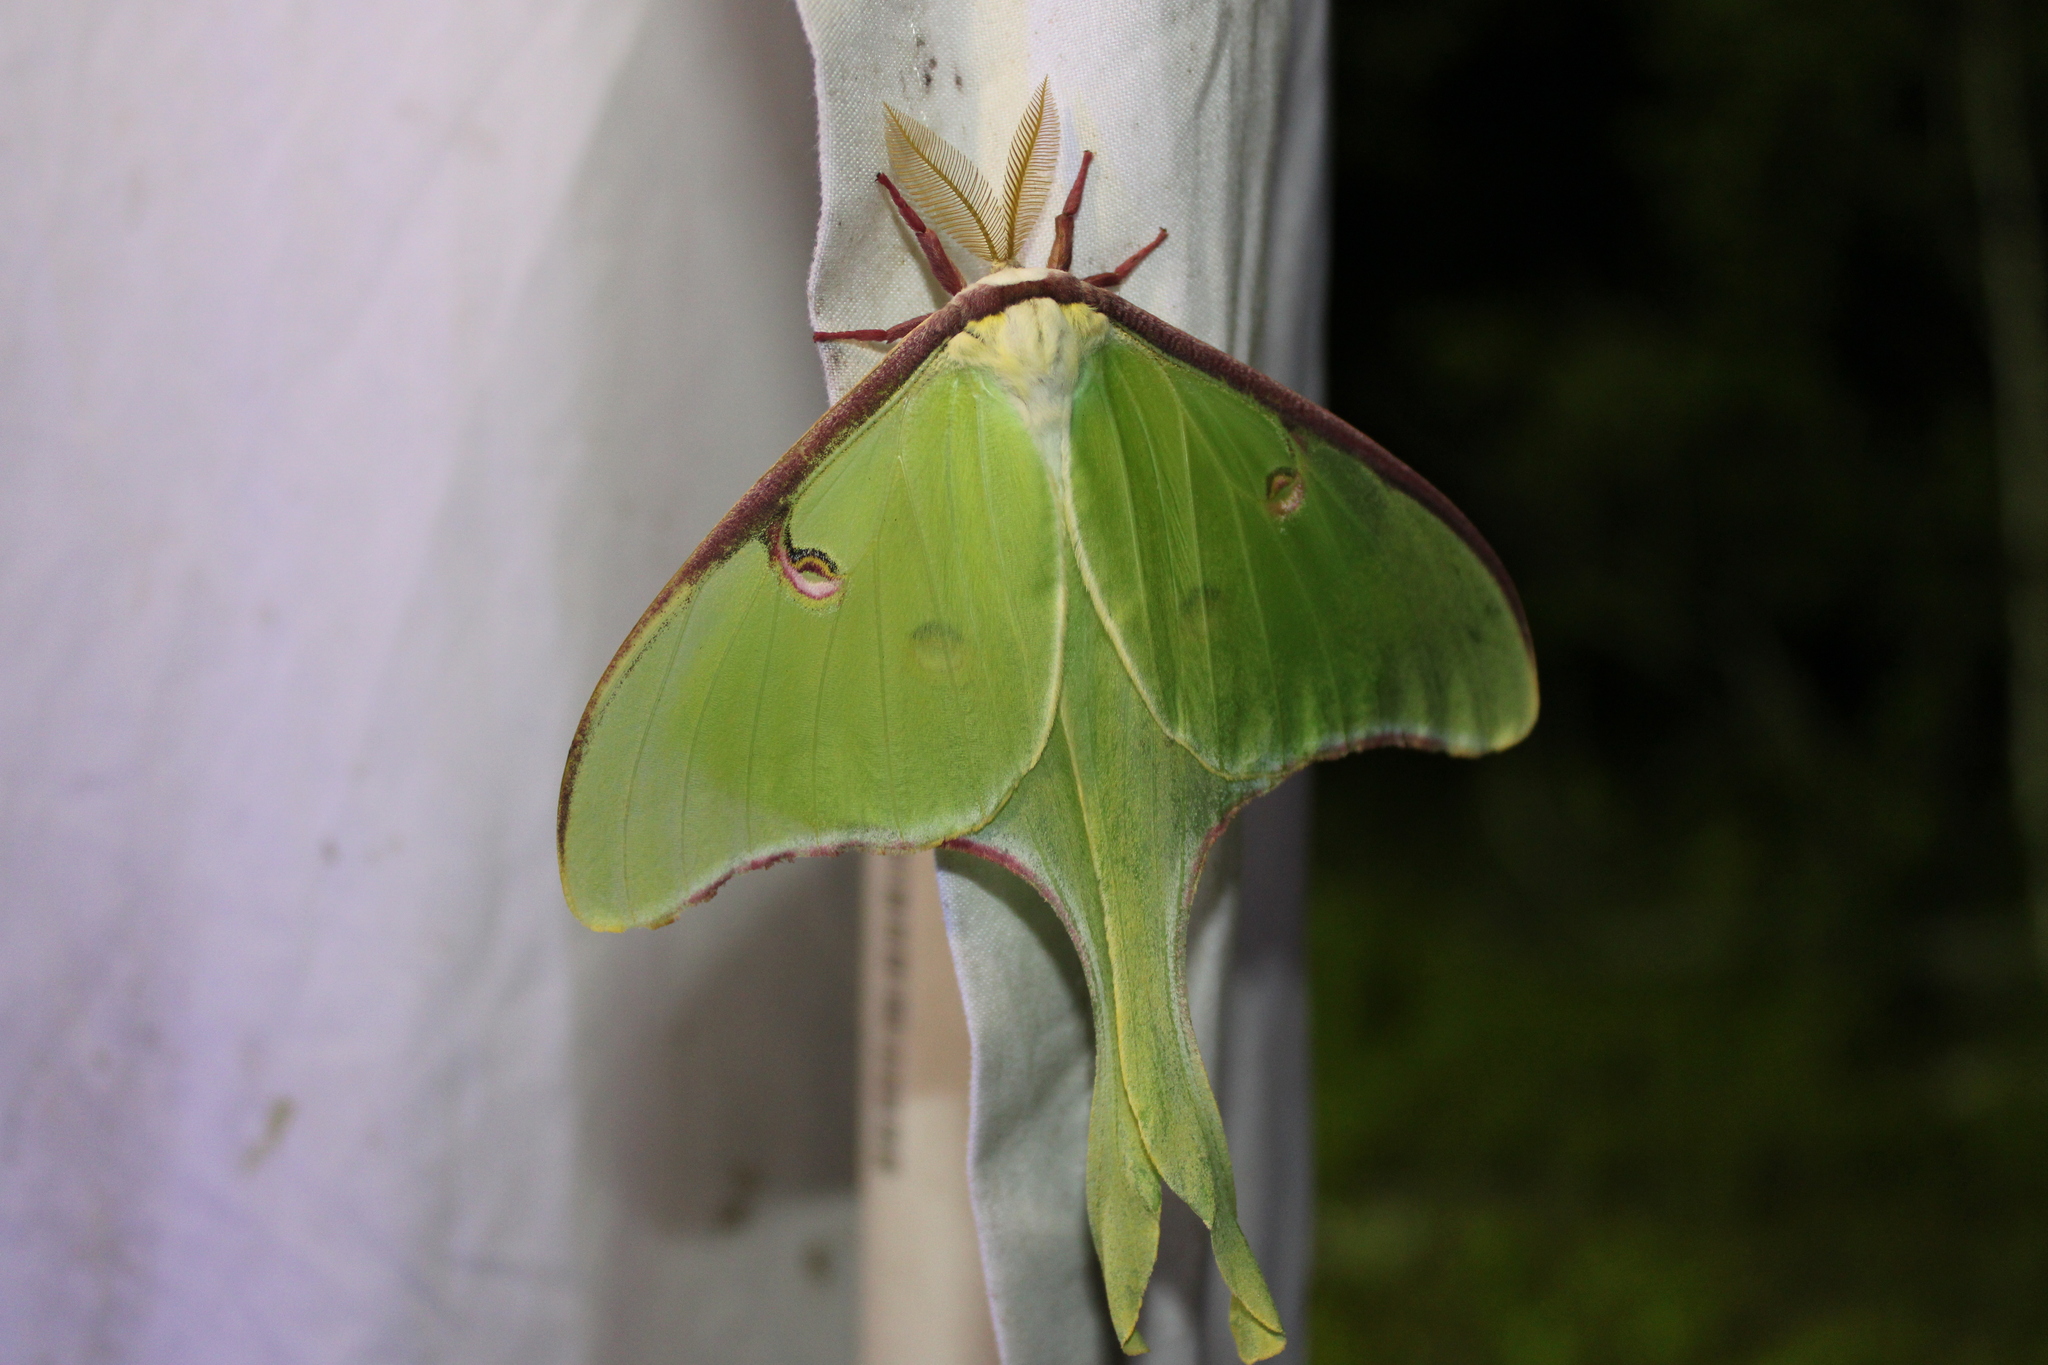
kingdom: Animalia
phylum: Arthropoda
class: Insecta
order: Lepidoptera
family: Saturniidae
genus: Actias
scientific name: Actias luna
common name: Luna moth
